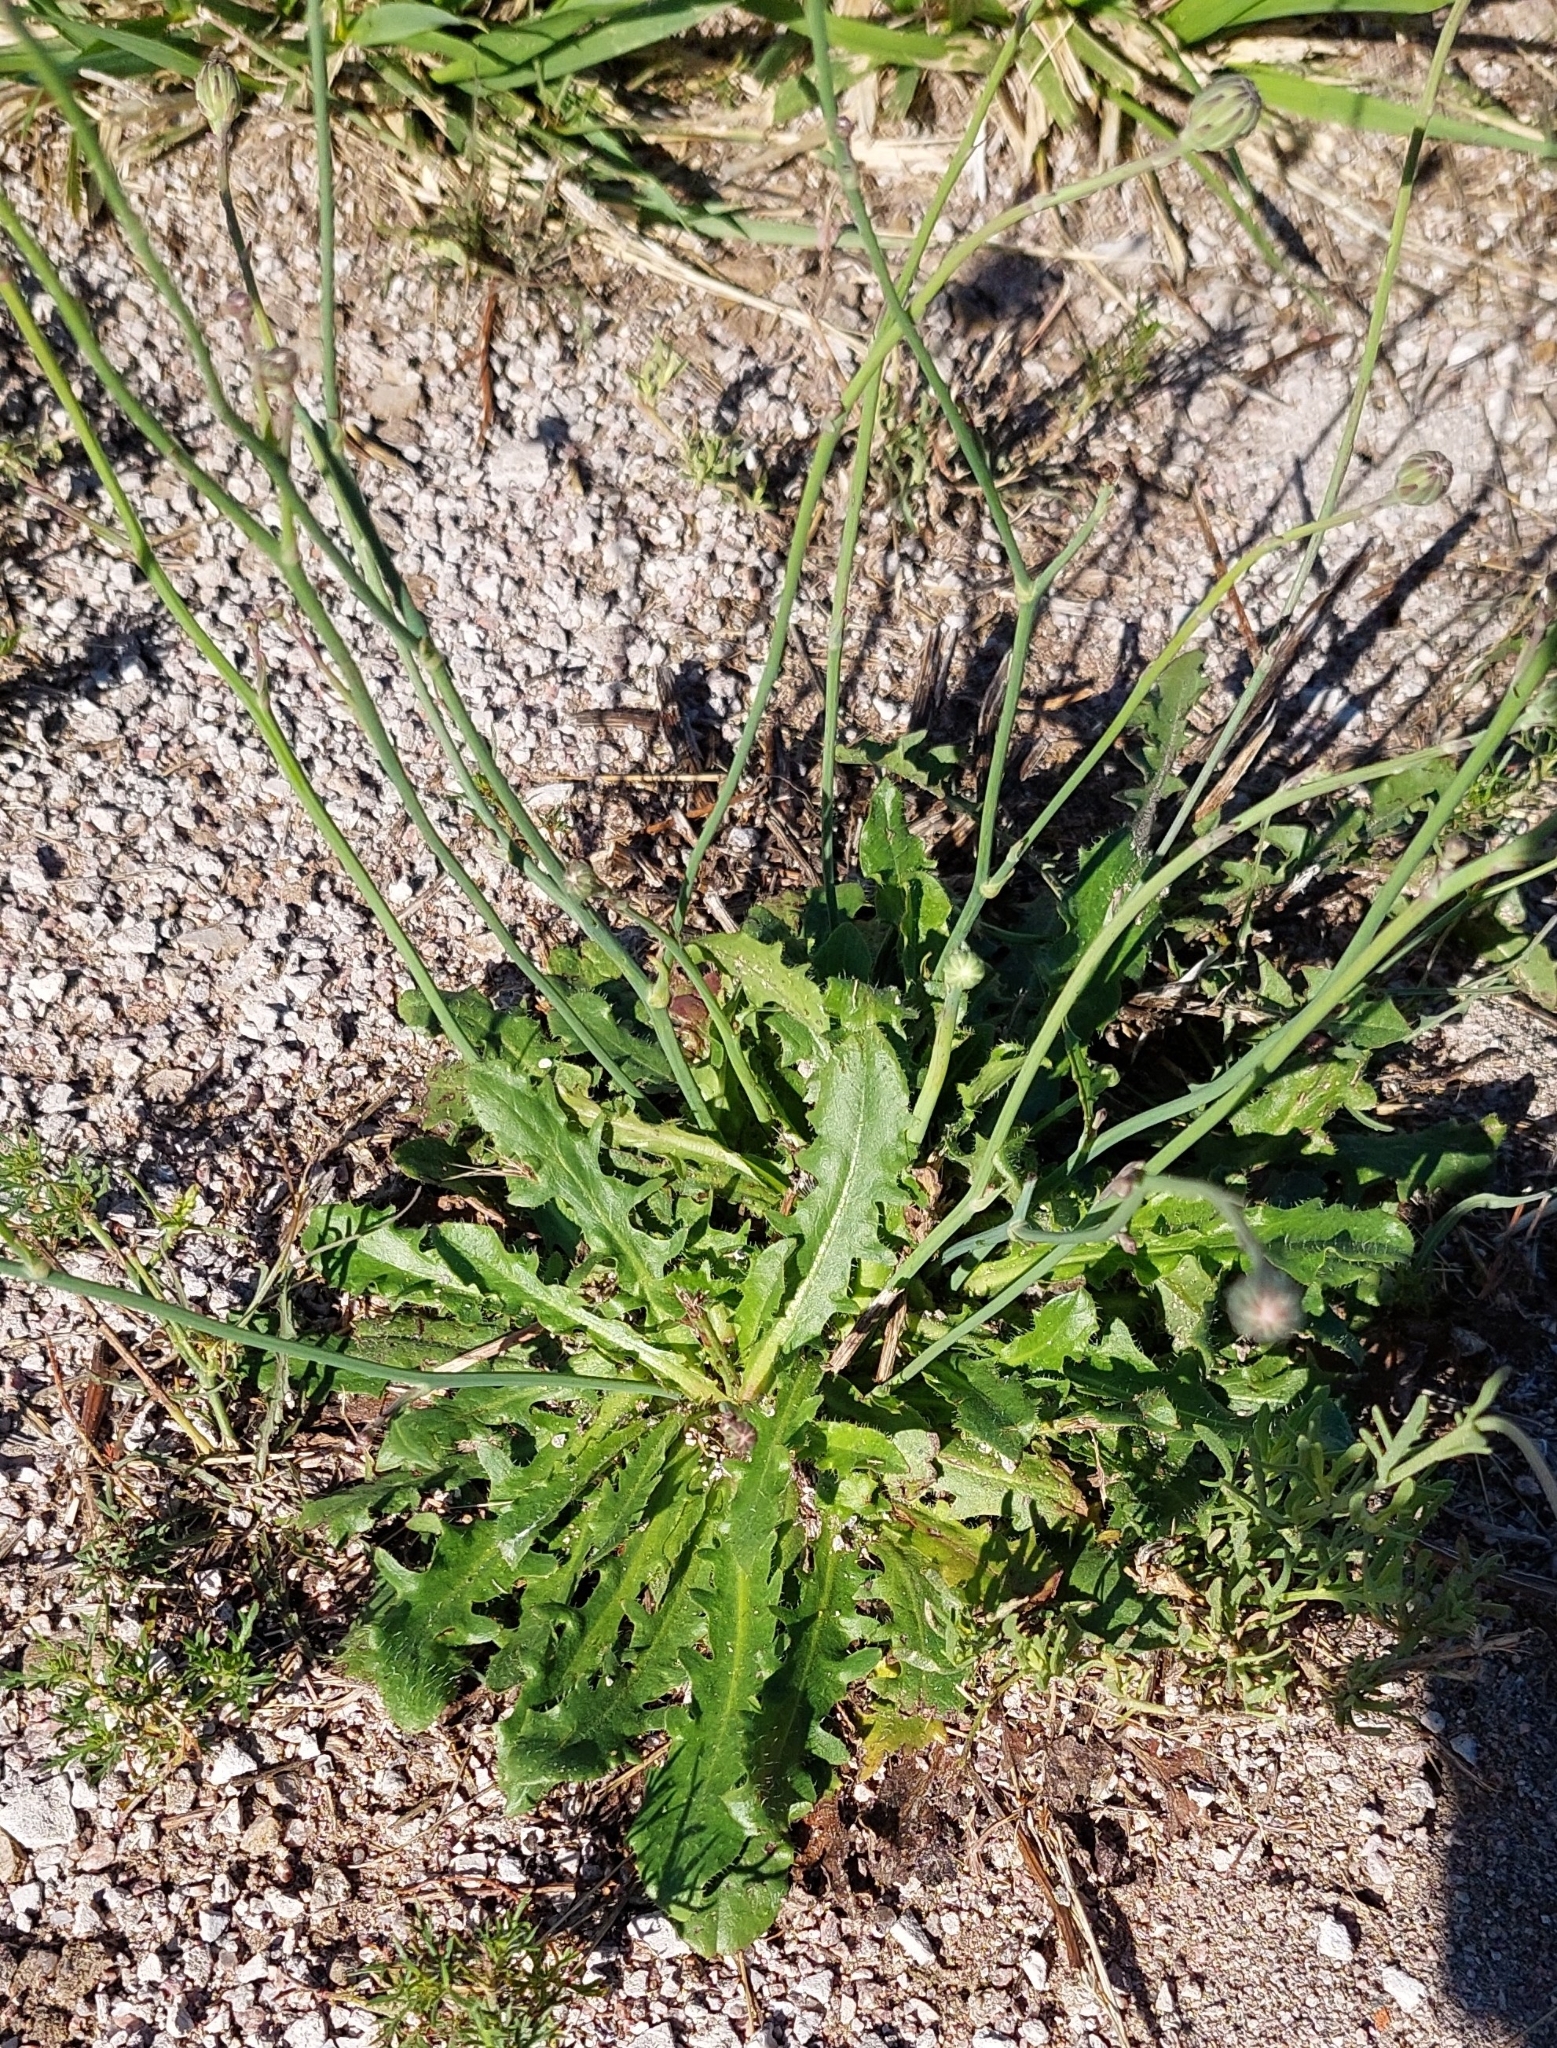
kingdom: Plantae
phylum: Tracheophyta
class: Magnoliopsida
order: Asterales
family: Asteraceae
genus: Hypochaeris
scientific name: Hypochaeris radicata
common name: Flatweed
